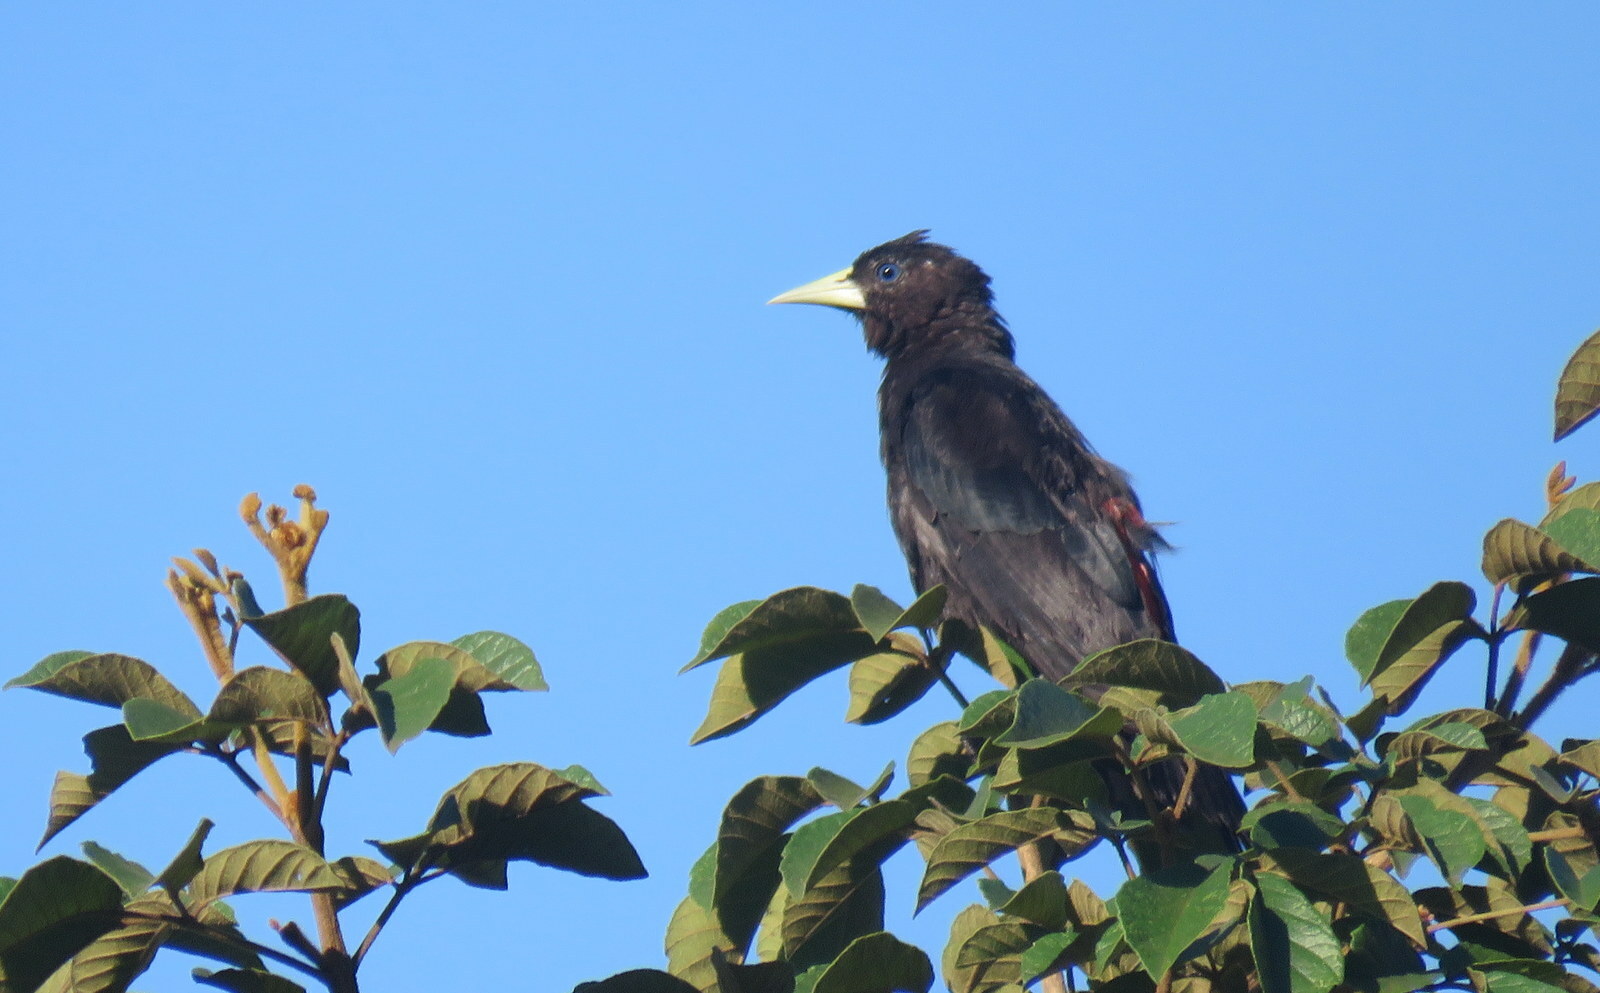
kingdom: Animalia
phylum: Chordata
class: Aves
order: Passeriformes
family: Icteridae
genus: Cacicus
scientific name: Cacicus haemorrhous
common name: Red-rumped cacique
